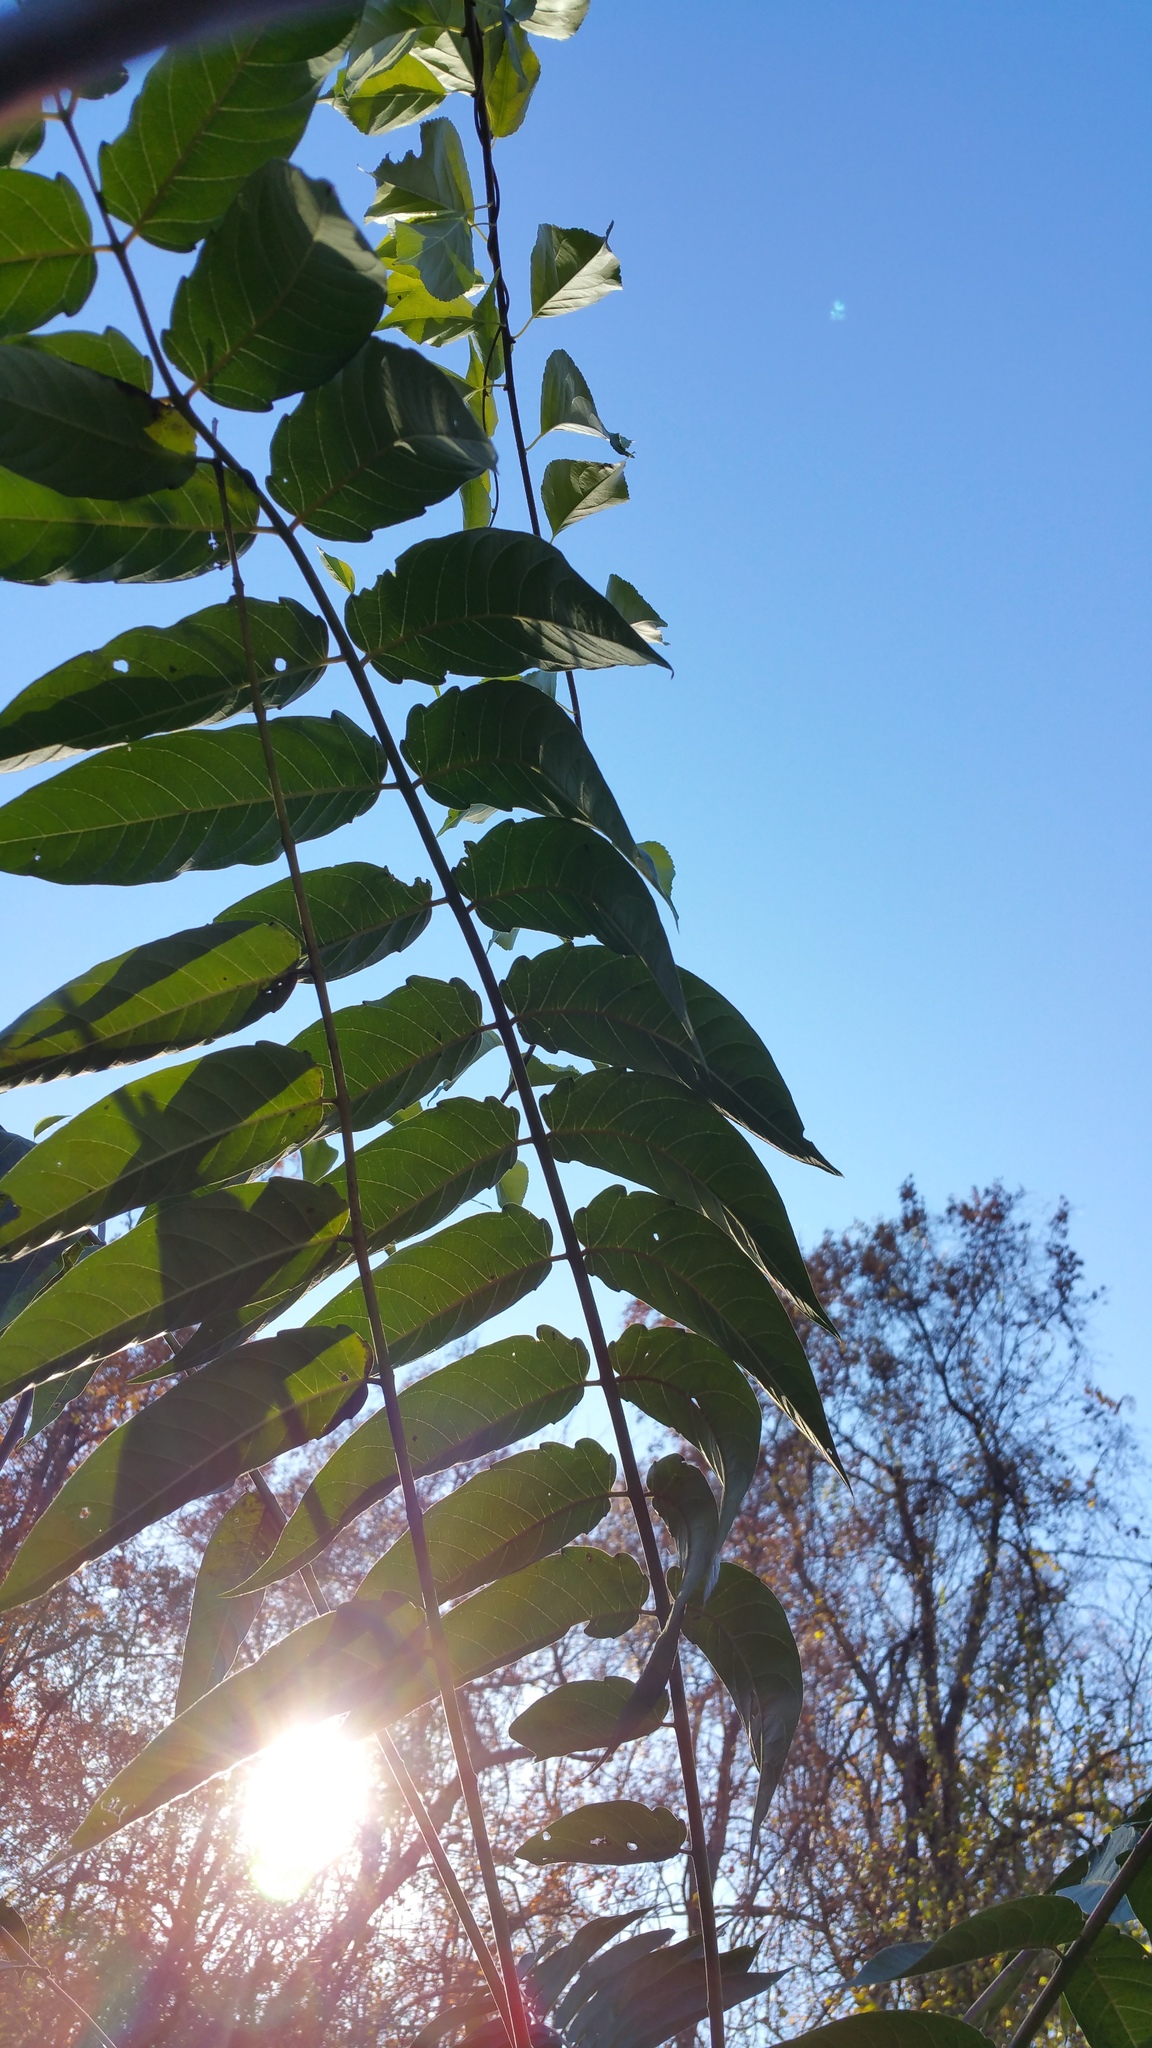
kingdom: Plantae
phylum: Tracheophyta
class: Magnoliopsida
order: Sapindales
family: Simaroubaceae
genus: Ailanthus
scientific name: Ailanthus altissima
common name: Tree-of-heaven
